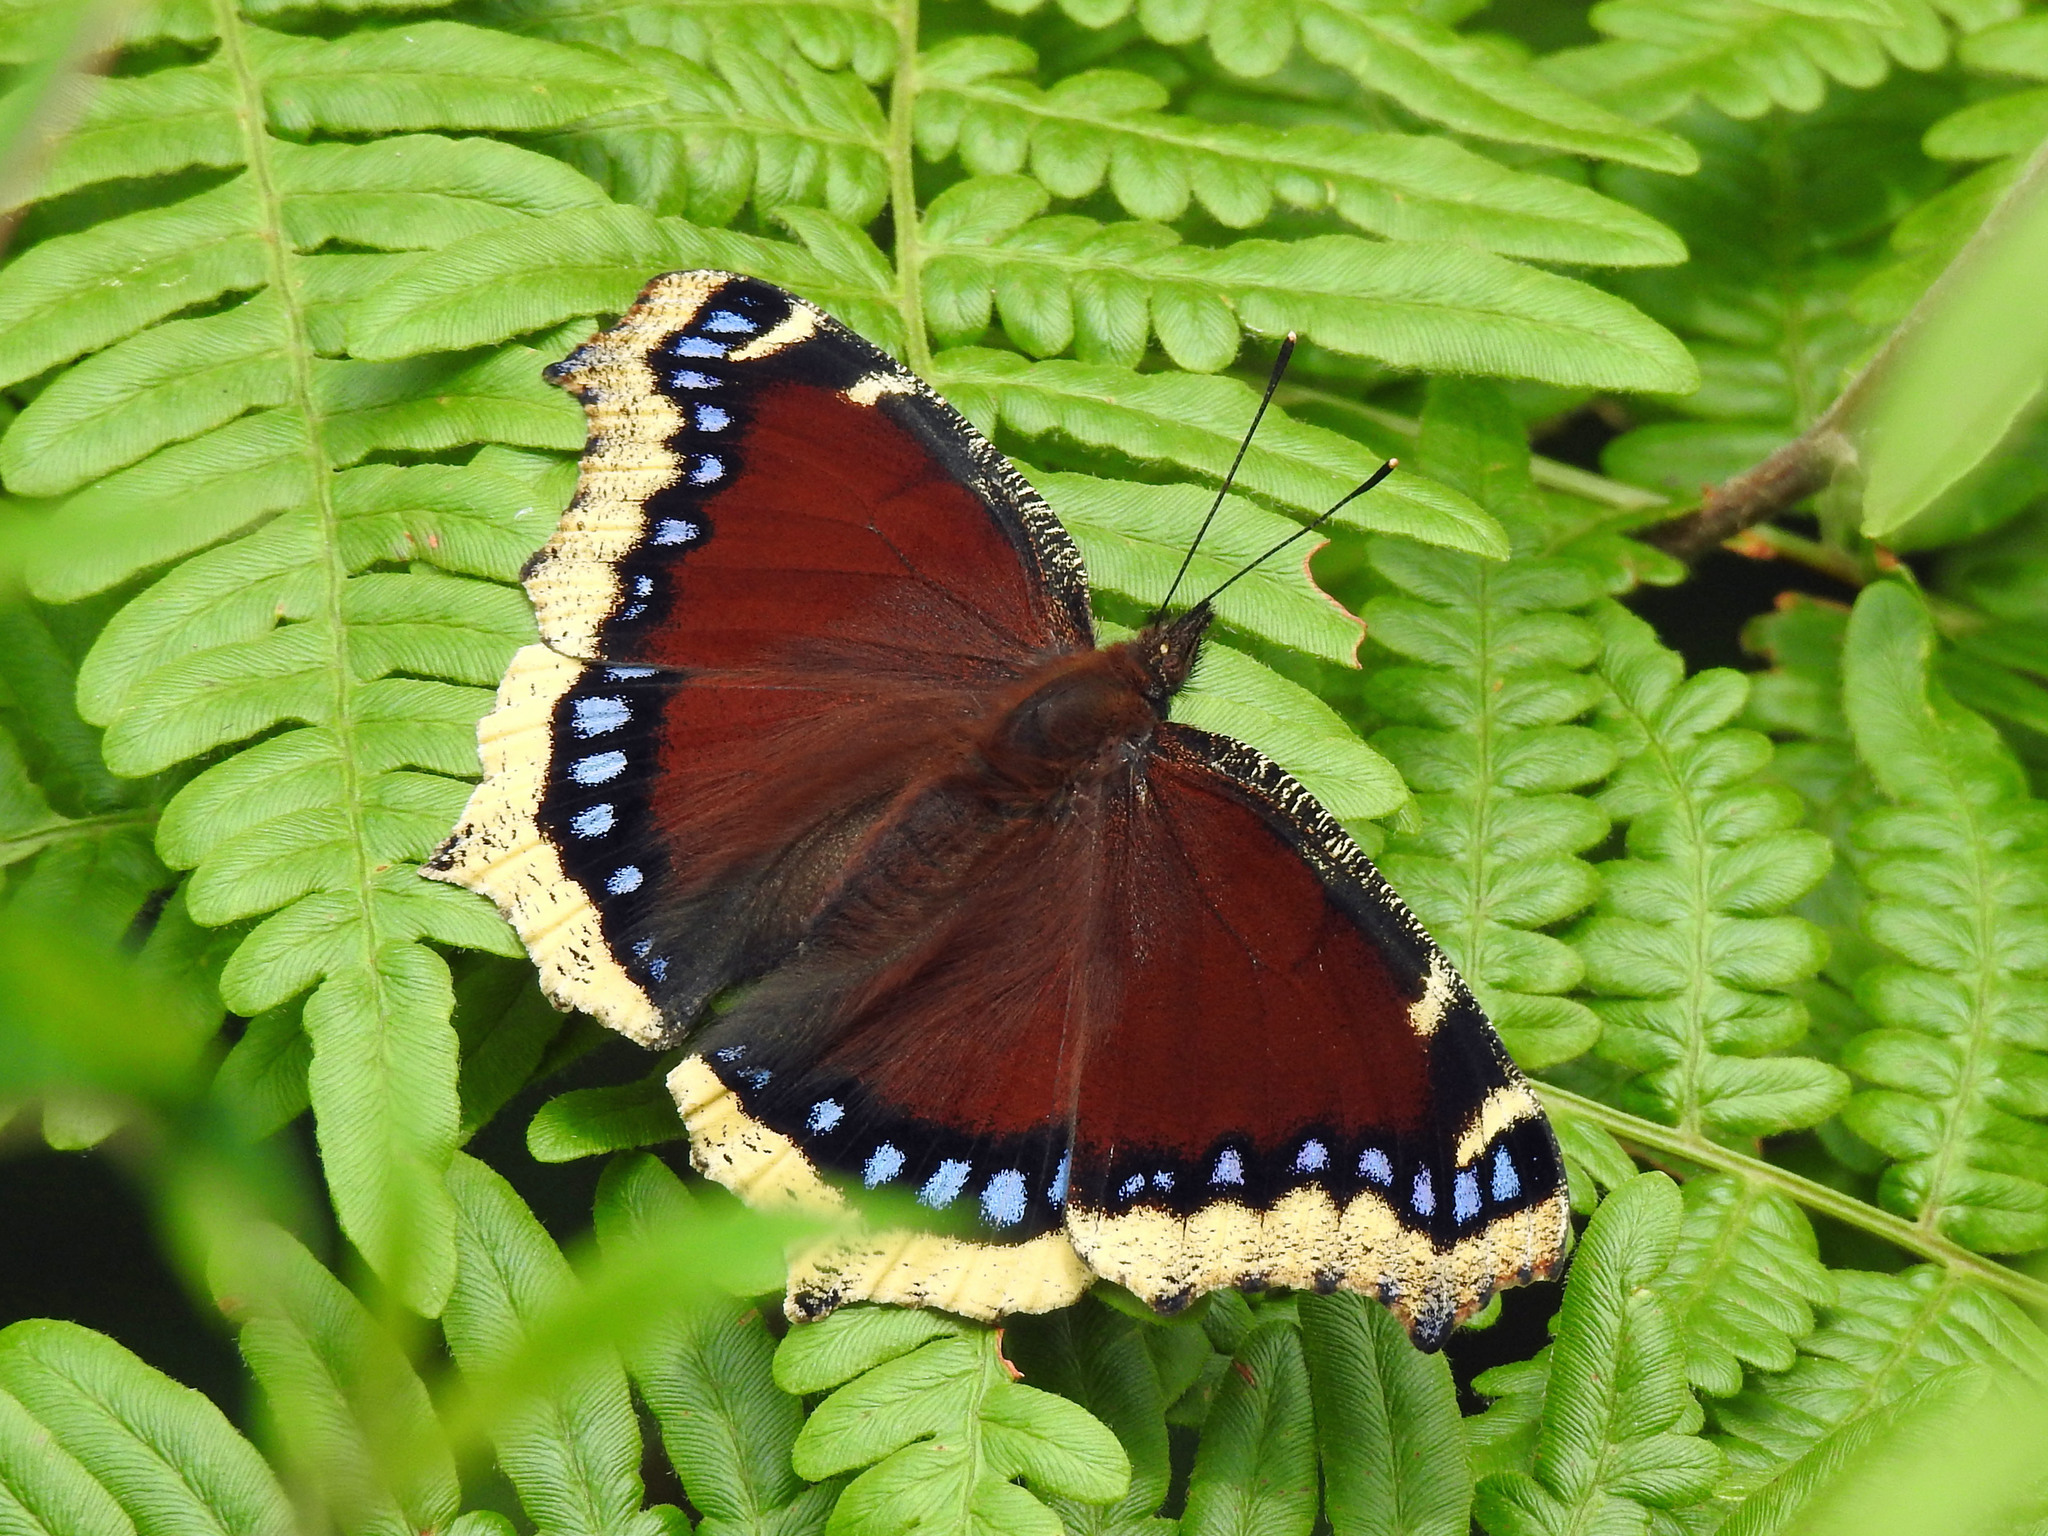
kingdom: Animalia
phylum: Arthropoda
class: Insecta
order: Lepidoptera
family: Nymphalidae
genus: Nymphalis
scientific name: Nymphalis antiopa
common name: Camberwell beauty
